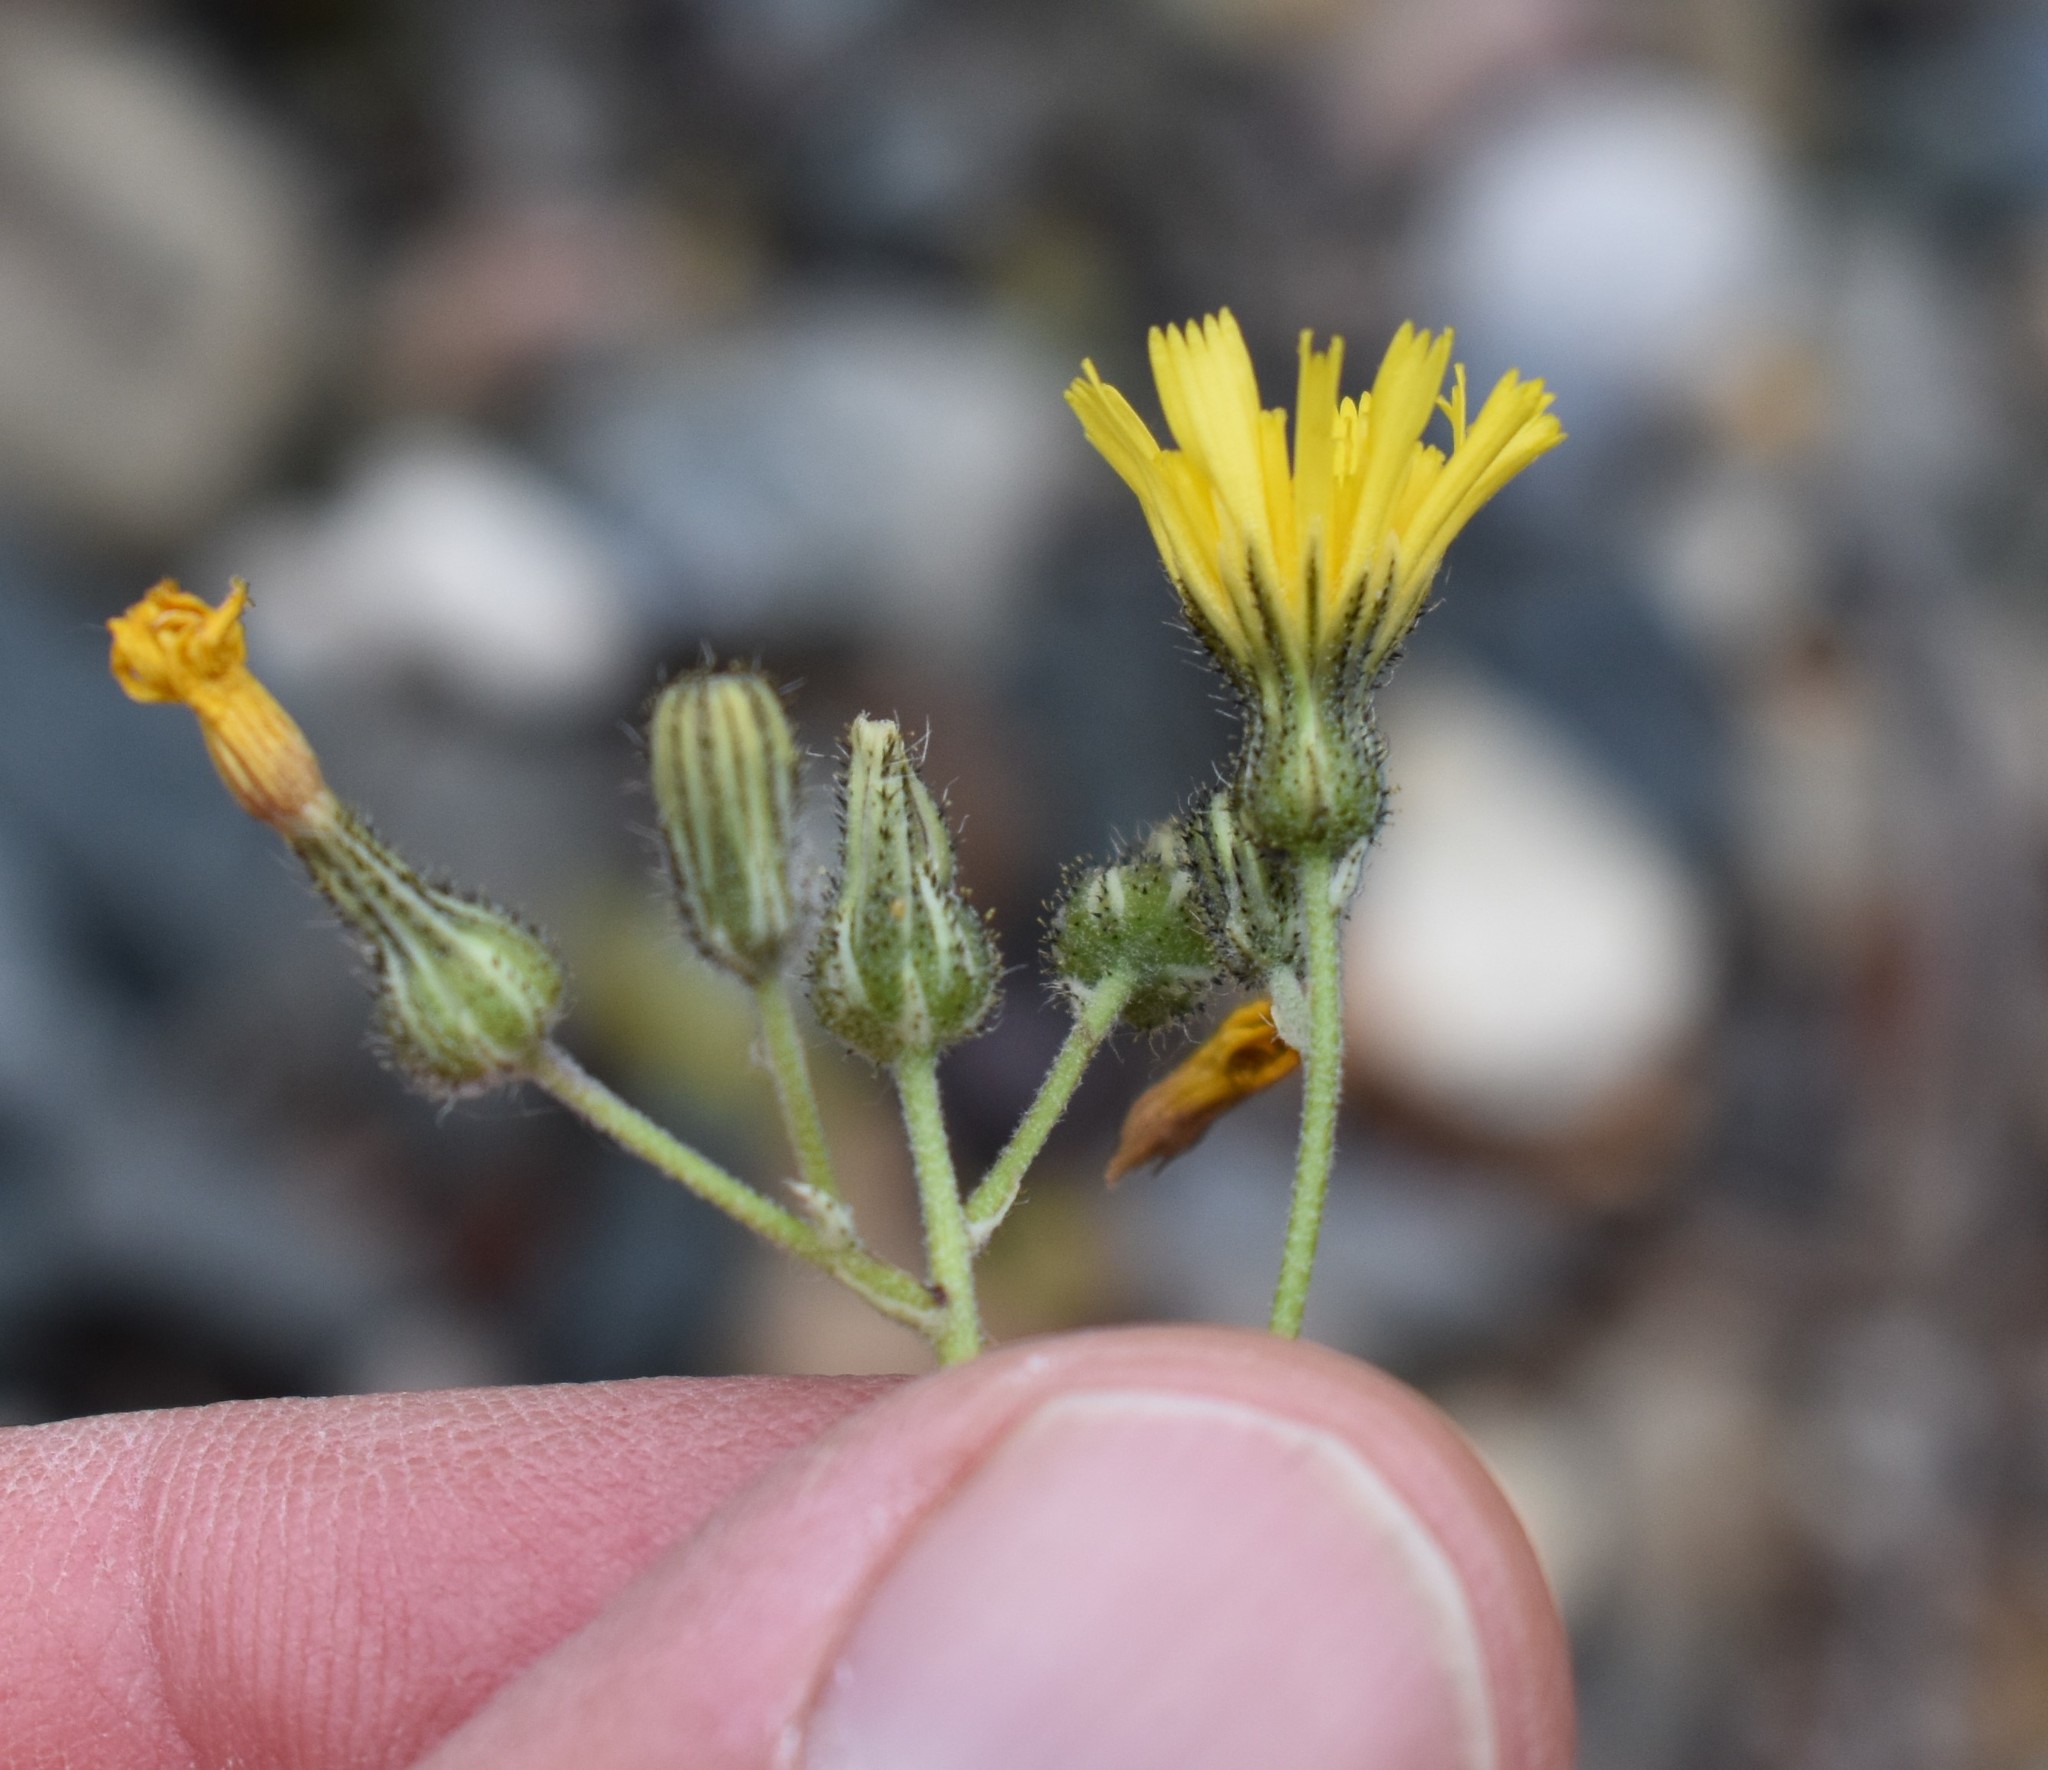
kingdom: Plantae
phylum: Tracheophyta
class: Magnoliopsida
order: Asterales
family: Asteraceae
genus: Pilosella
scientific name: Pilosella piloselloides
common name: Glaucous king-devil
